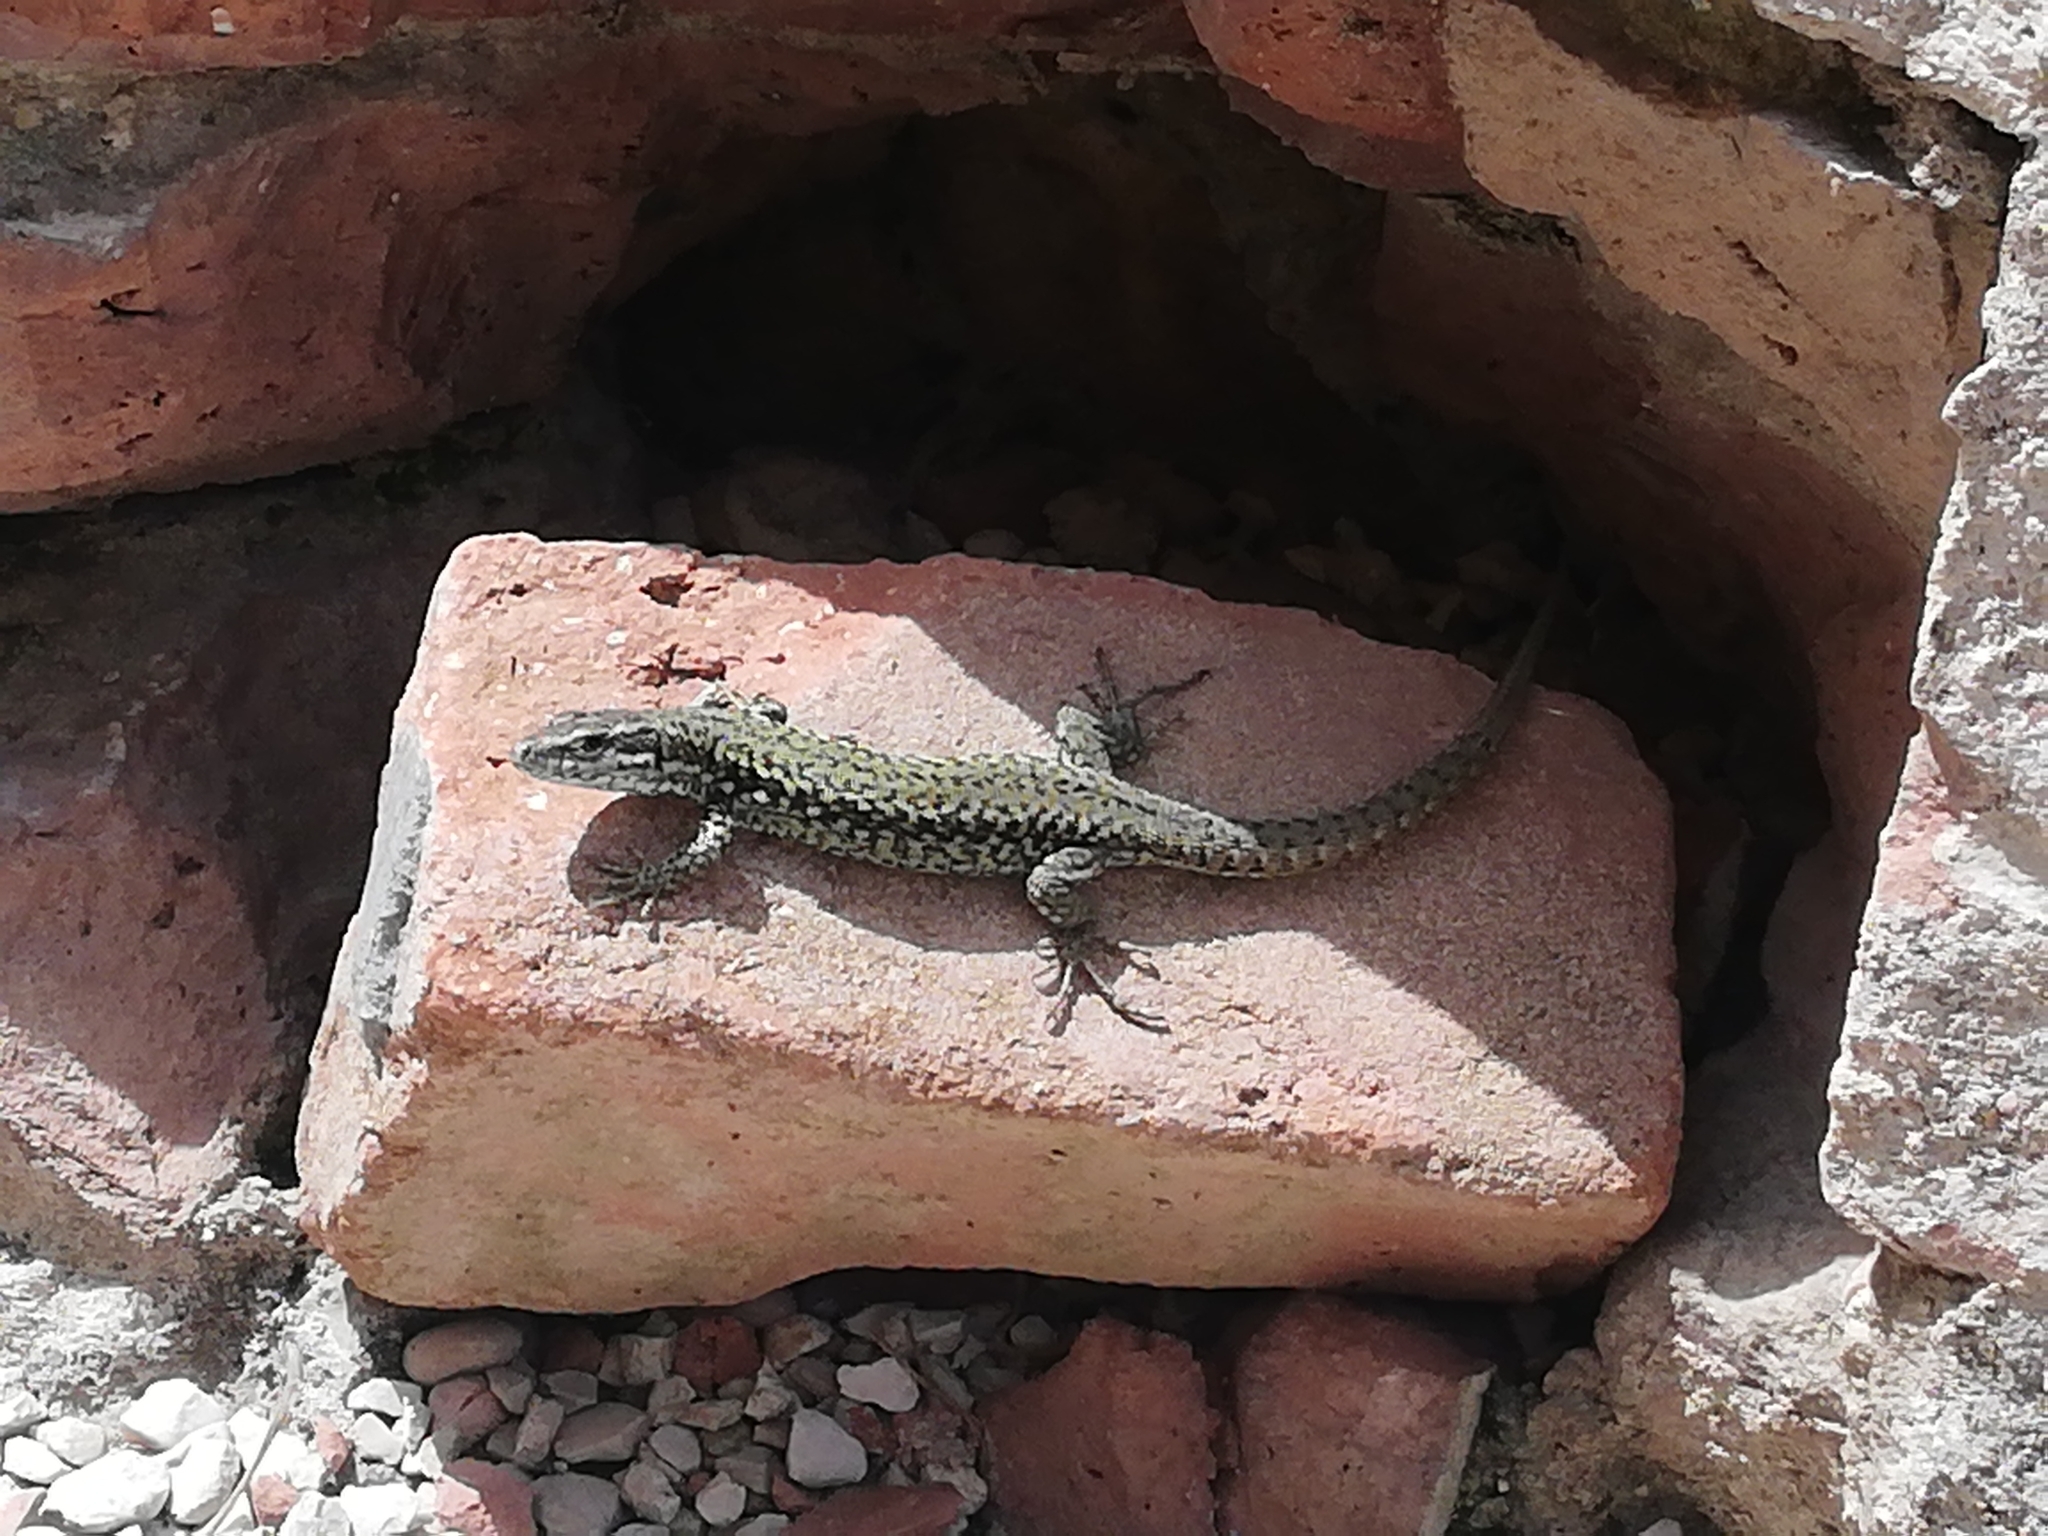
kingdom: Animalia
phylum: Chordata
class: Squamata
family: Lacertidae
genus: Podarcis
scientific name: Podarcis muralis
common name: Common wall lizard
